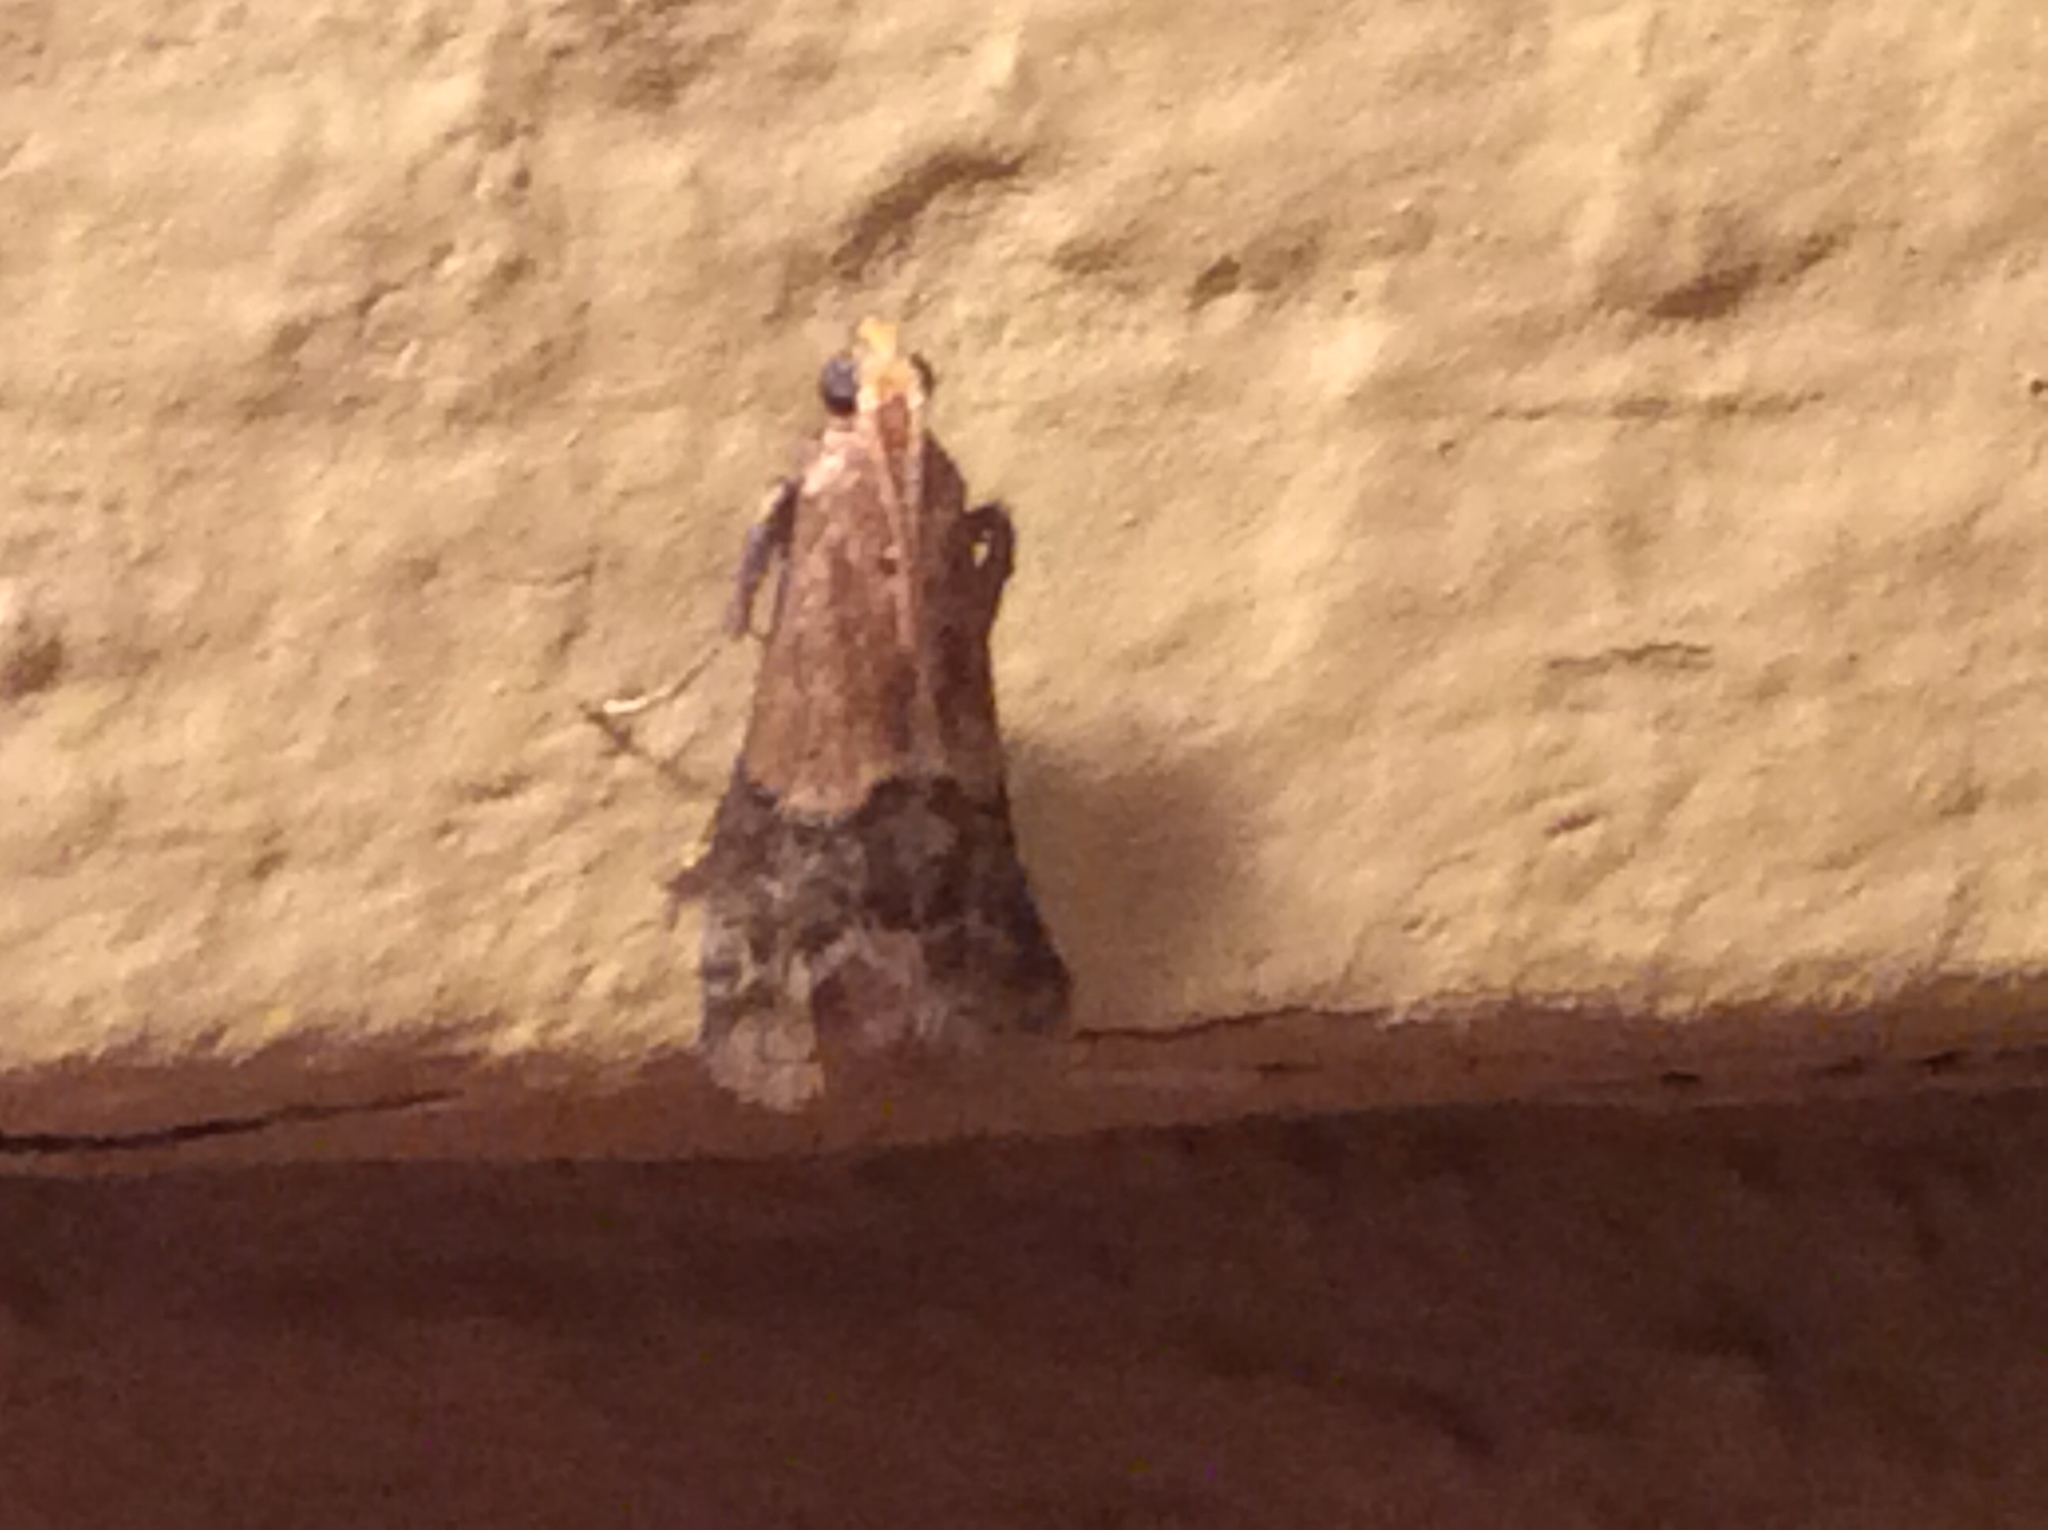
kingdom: Animalia
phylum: Arthropoda
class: Insecta
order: Lepidoptera
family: Pyralidae
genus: Eulogia
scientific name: Eulogia ochrifrontella
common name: Broad-banded eulogia moth
